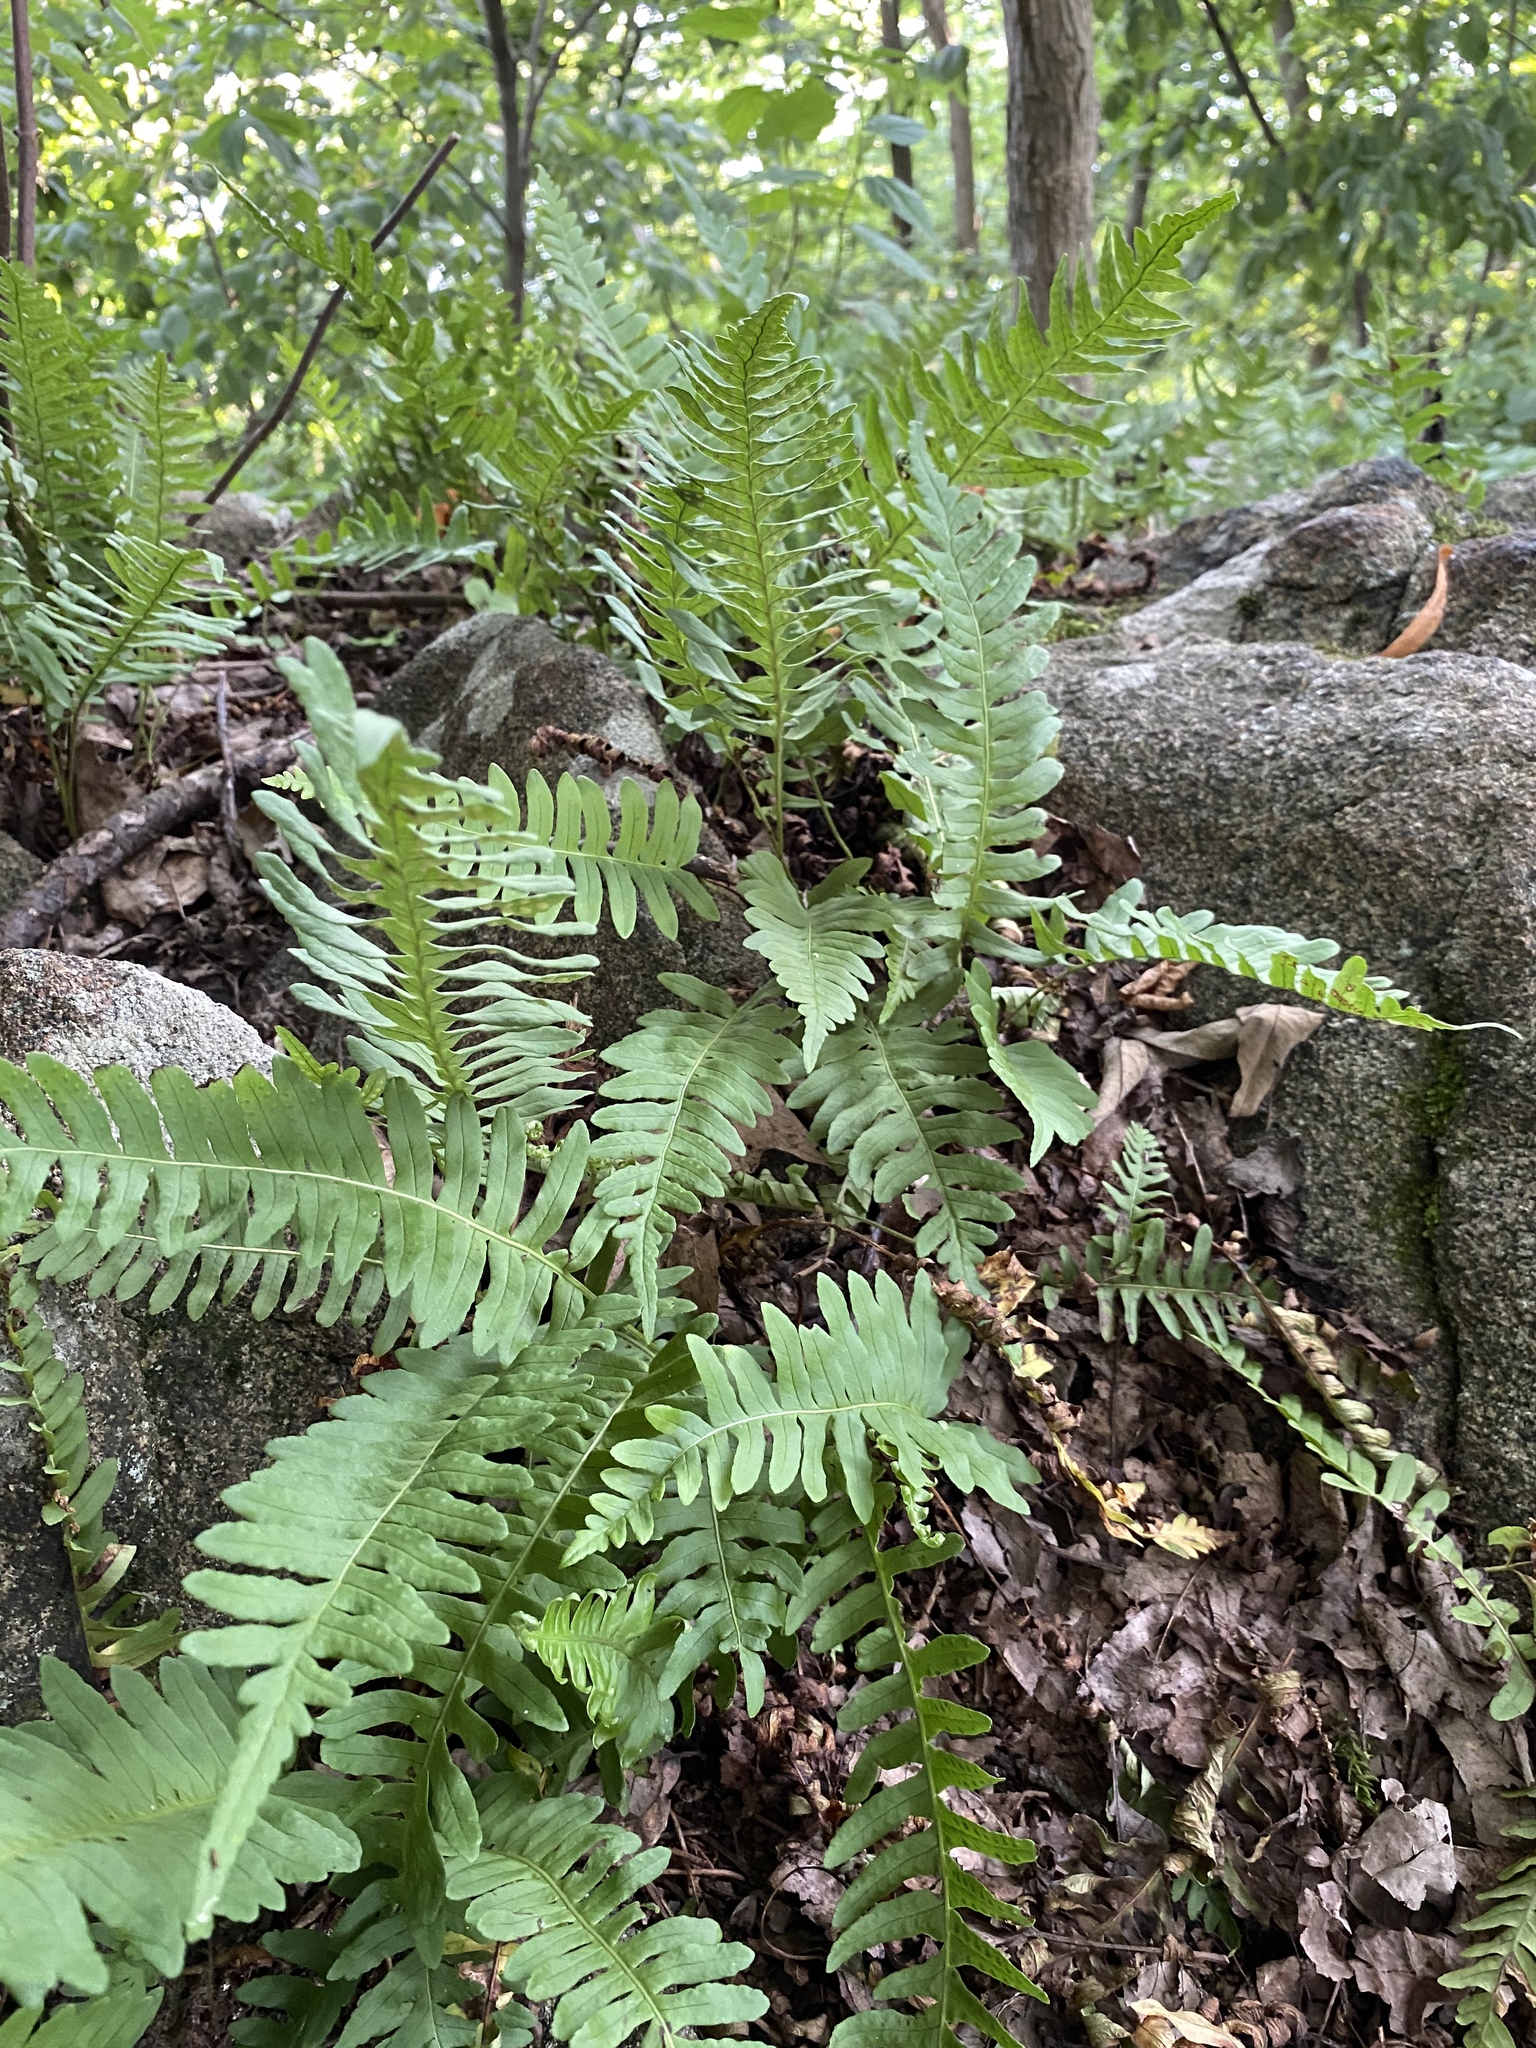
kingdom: Plantae
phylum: Tracheophyta
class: Polypodiopsida
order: Polypodiales
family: Polypodiaceae
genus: Polypodium
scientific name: Polypodium virginianum
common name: American wall fern
